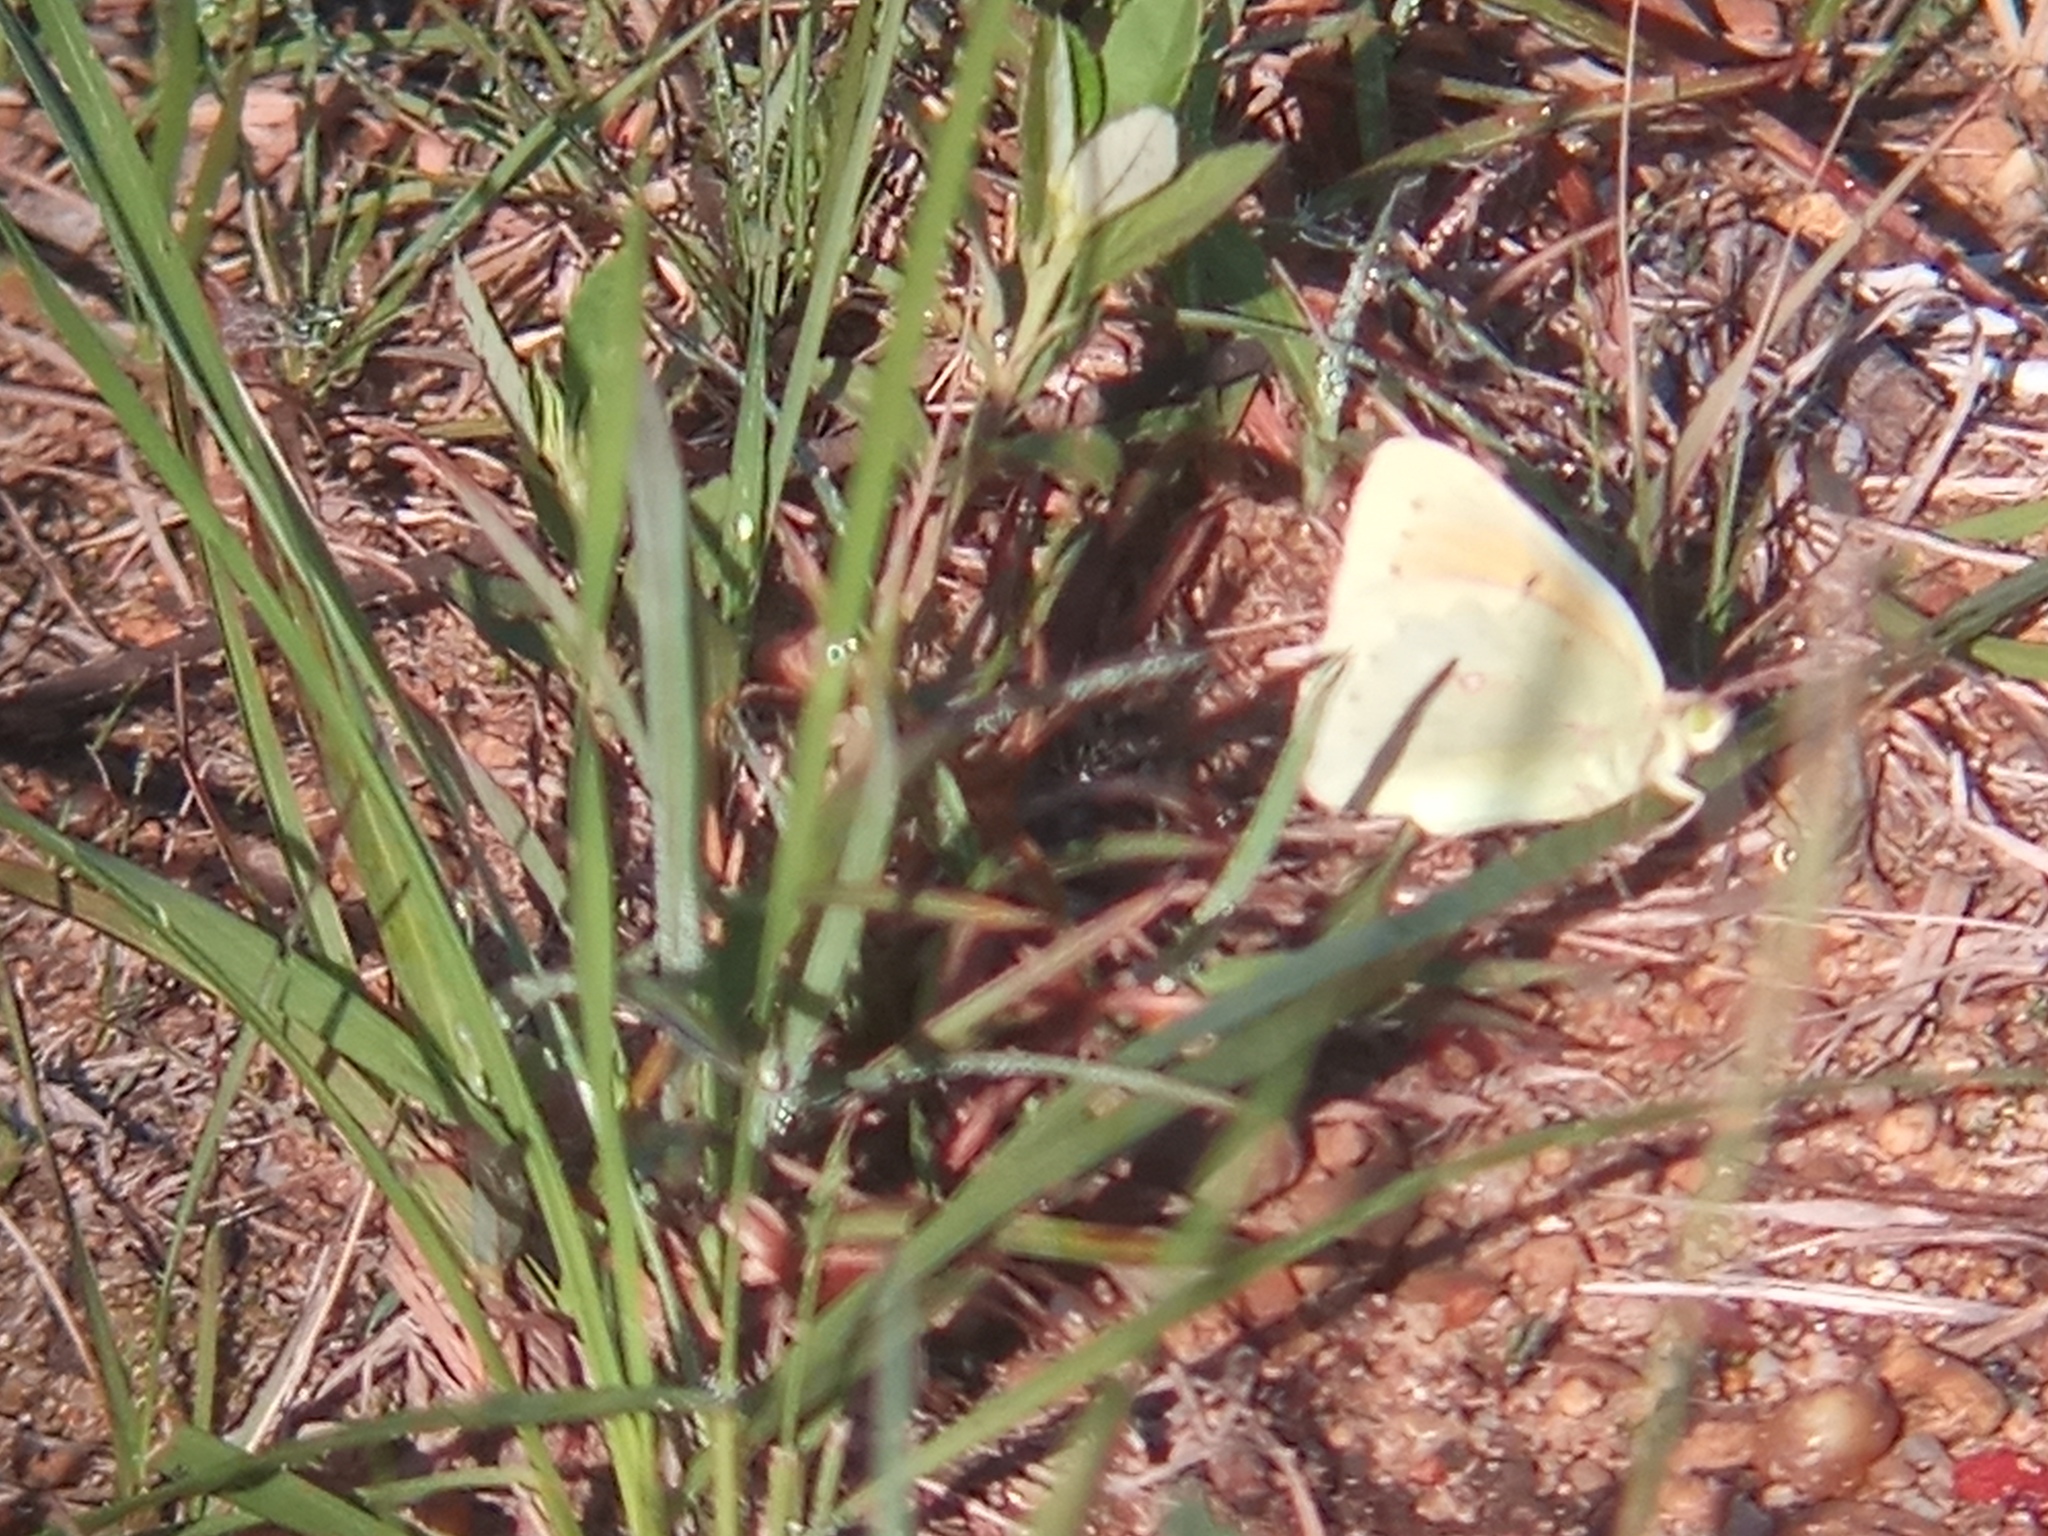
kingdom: Animalia
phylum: Arthropoda
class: Insecta
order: Lepidoptera
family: Pieridae
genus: Colias
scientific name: Colias lesbia
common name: Lesbia clouded yellow
